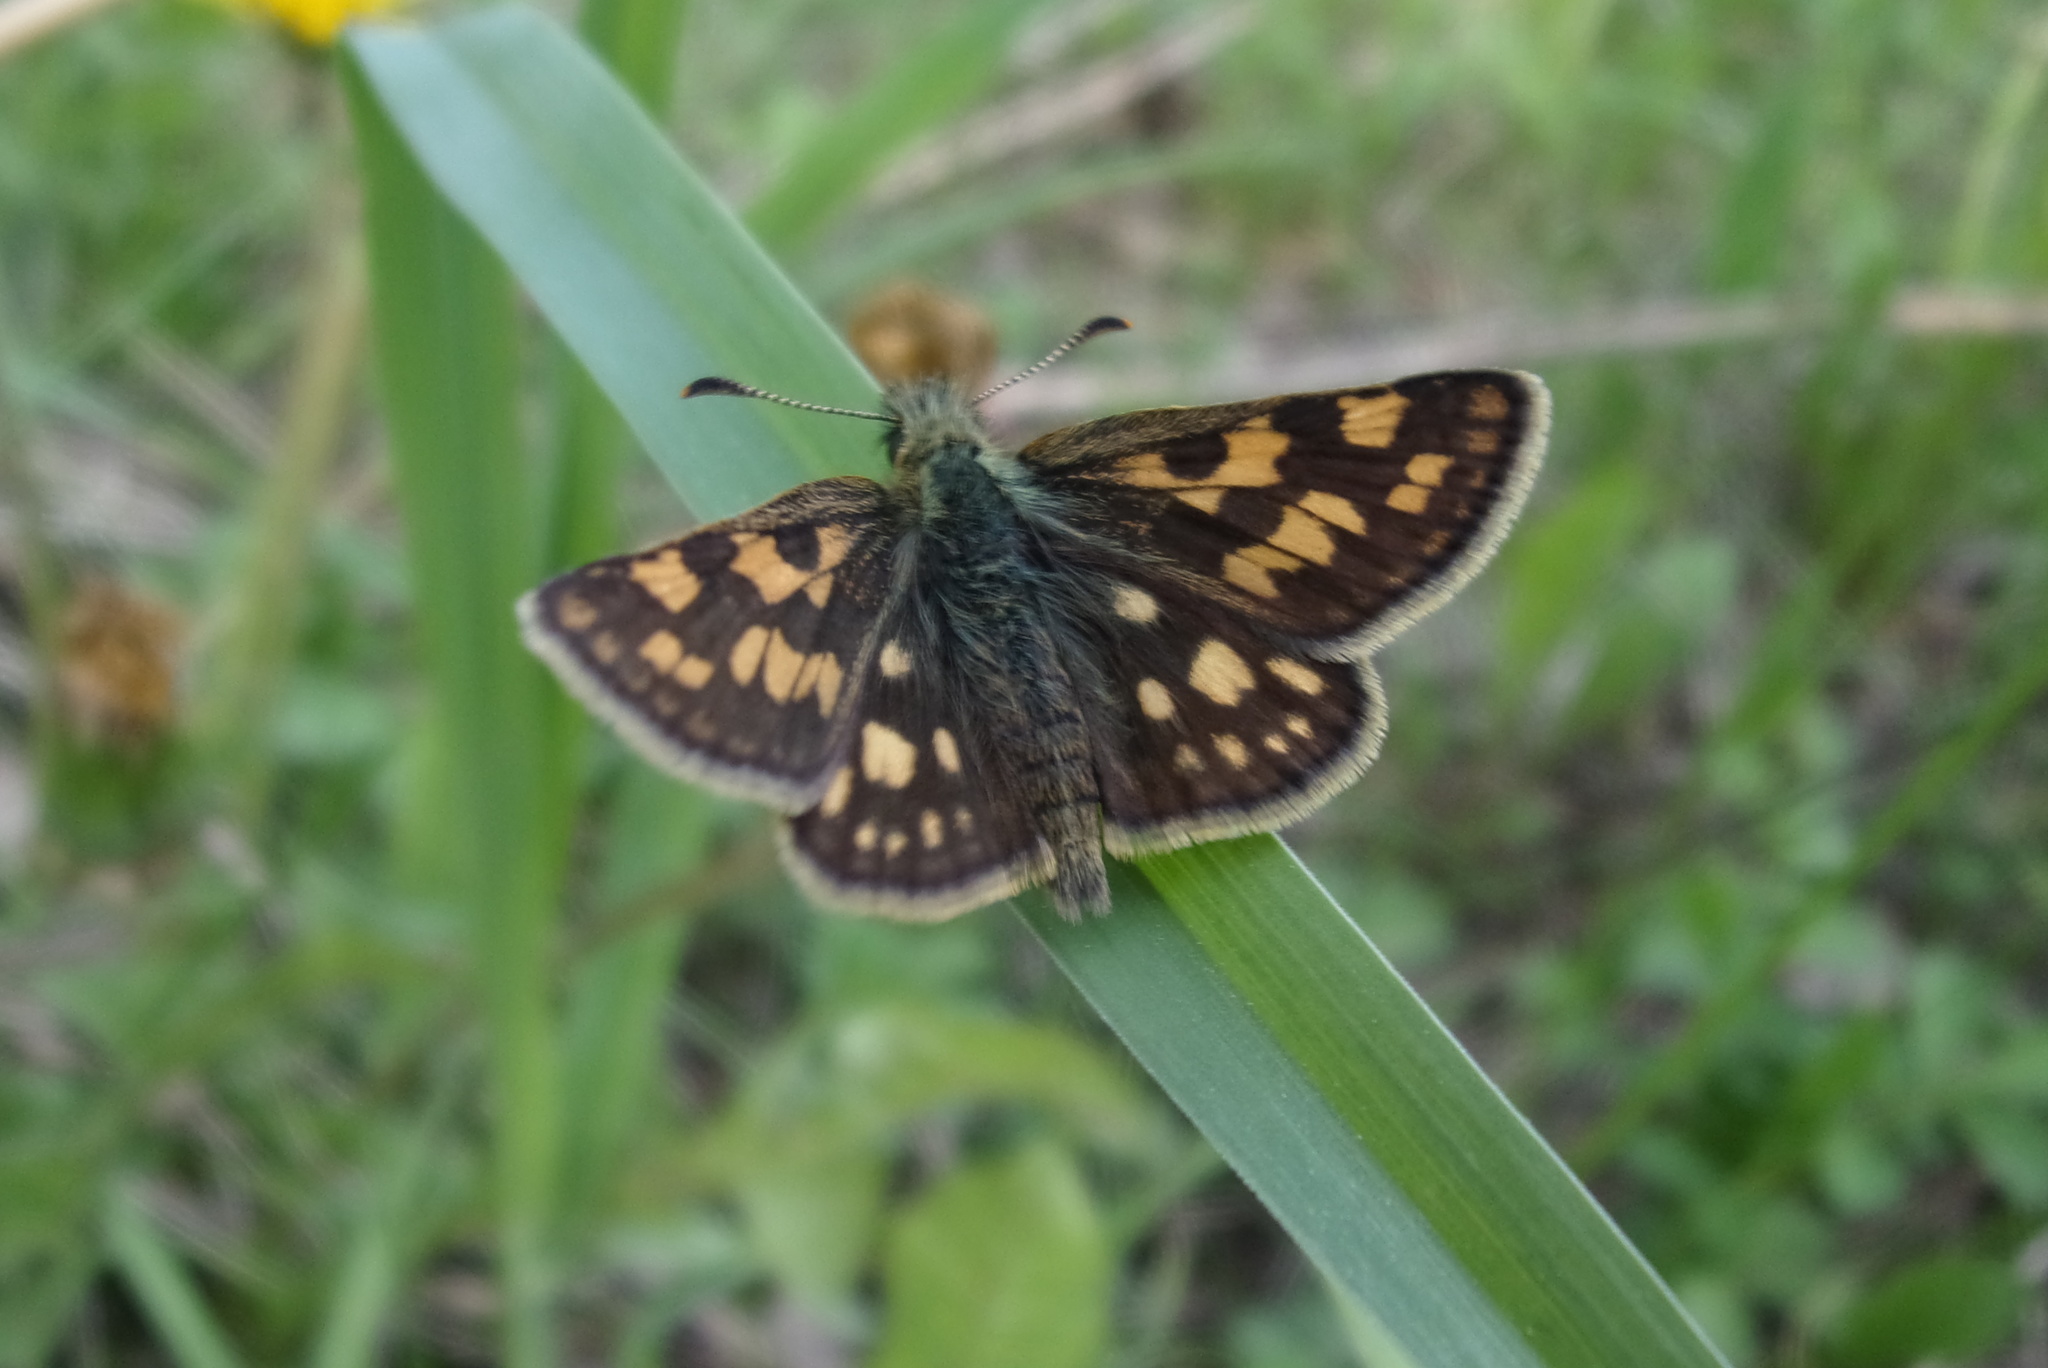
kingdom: Animalia
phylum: Arthropoda
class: Insecta
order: Lepidoptera
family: Hesperiidae
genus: Carterocephalus
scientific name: Carterocephalus palaemon
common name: Chequered skipper
